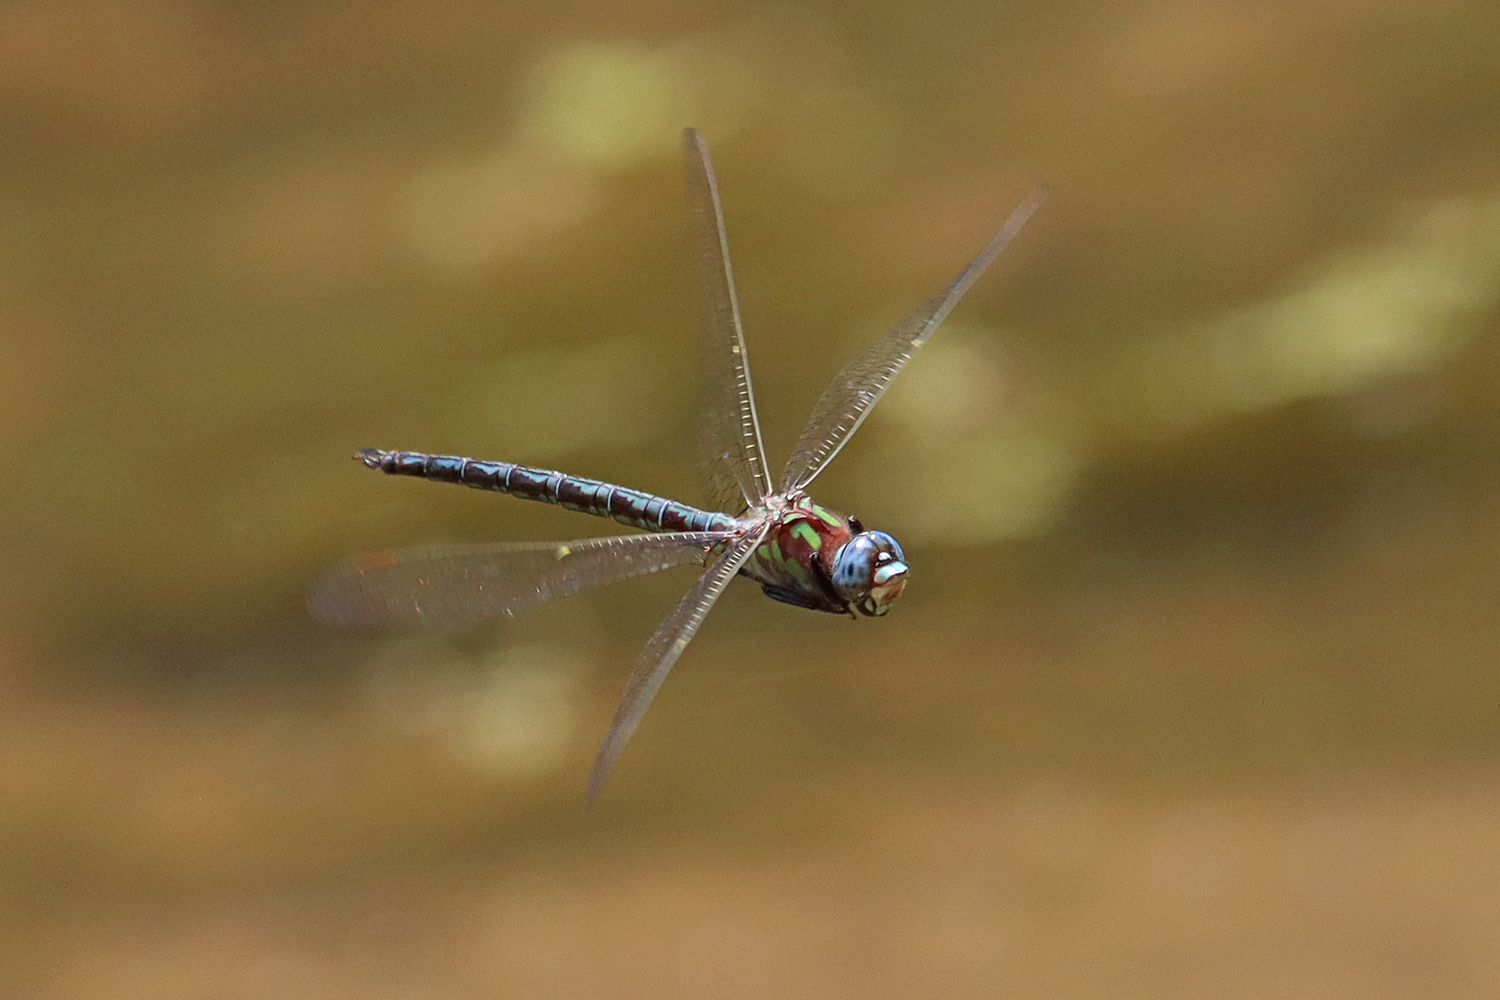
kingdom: Animalia
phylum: Arthropoda
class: Insecta
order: Odonata
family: Aeshnidae
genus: Nasiaeschna
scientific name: Nasiaeschna pentacantha
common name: Cyrano darner
